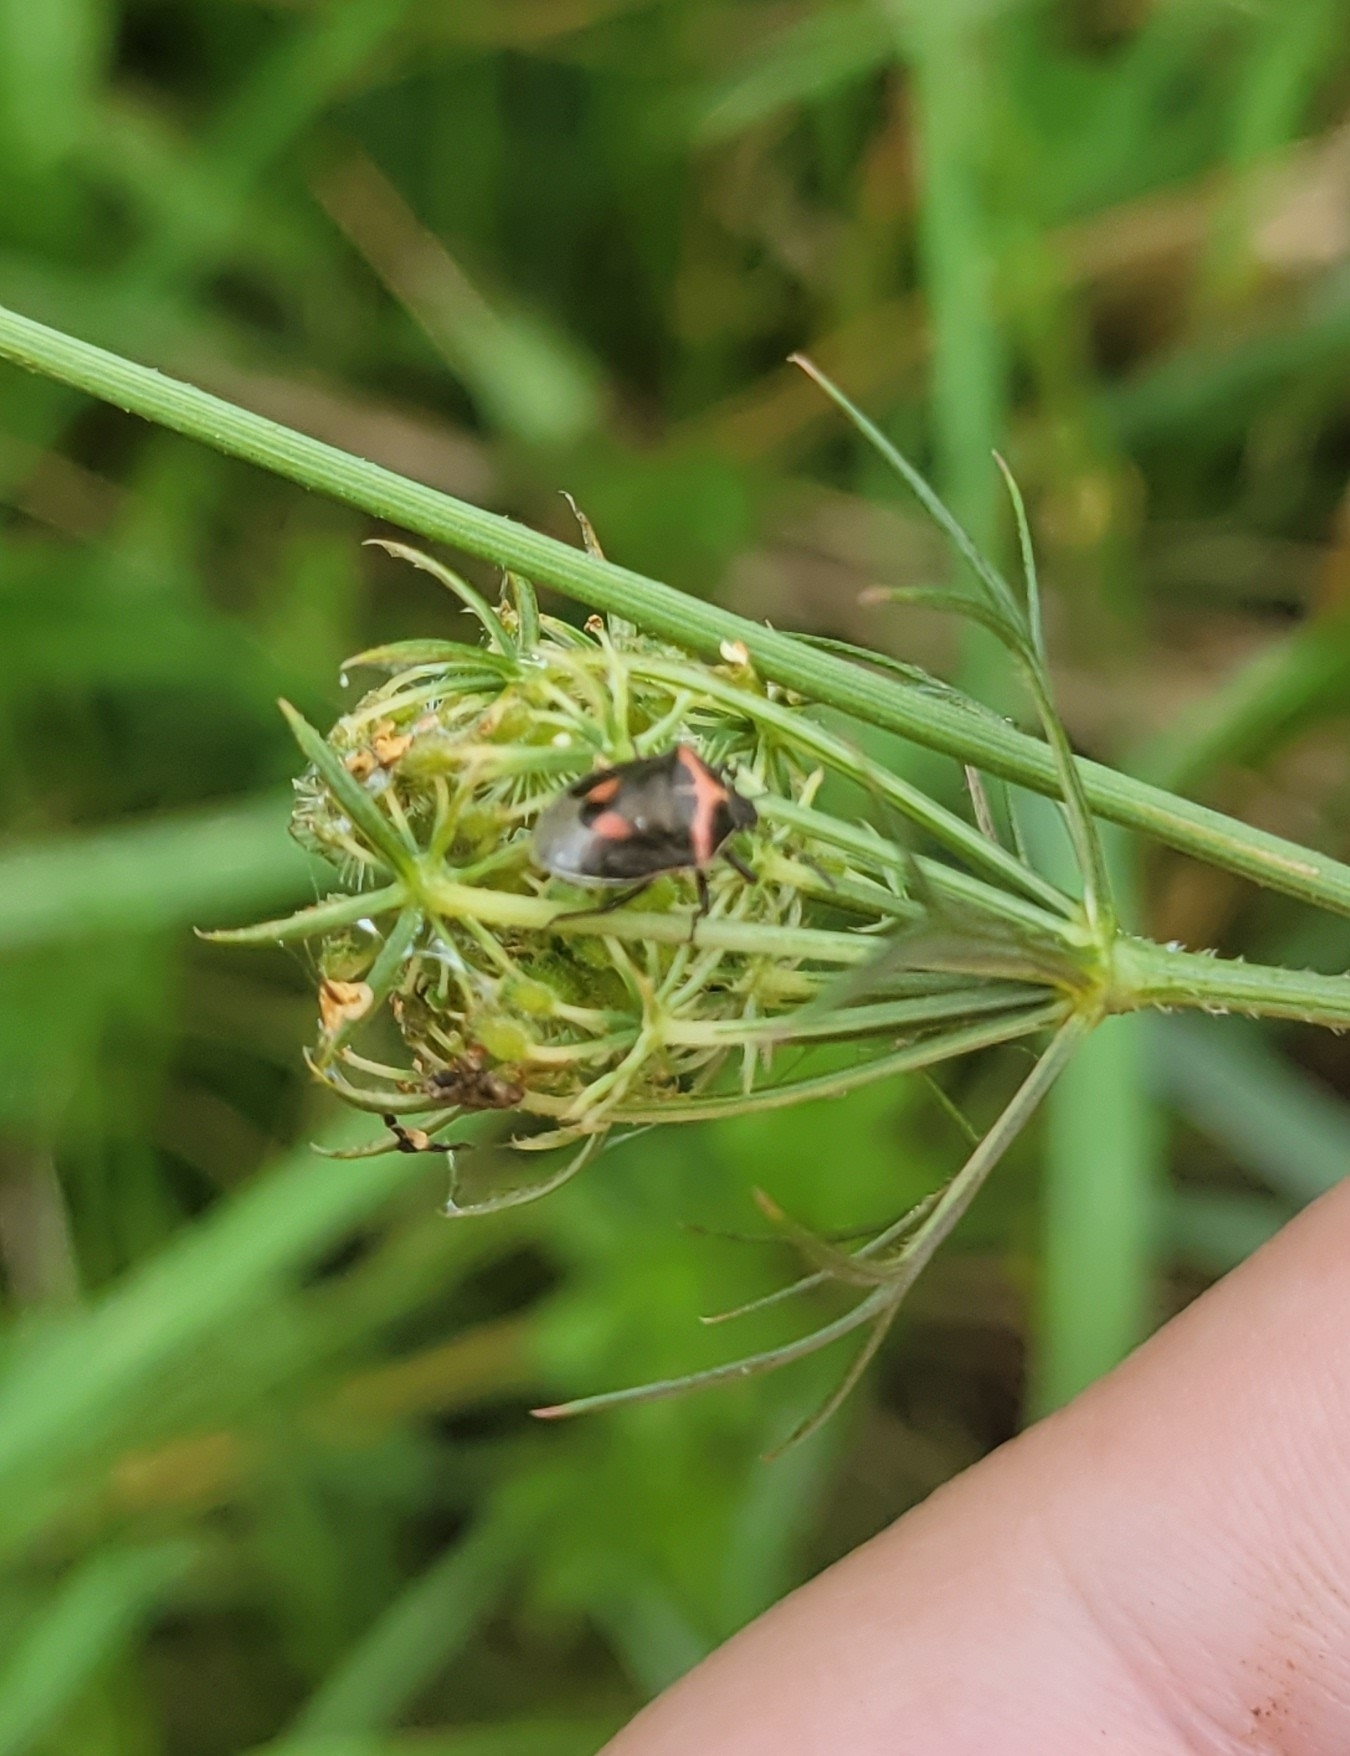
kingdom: Animalia
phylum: Arthropoda
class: Insecta
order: Hemiptera
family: Pentatomidae
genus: Cosmopepla
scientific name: Cosmopepla lintneriana
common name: Twice-stabbed stink bug
